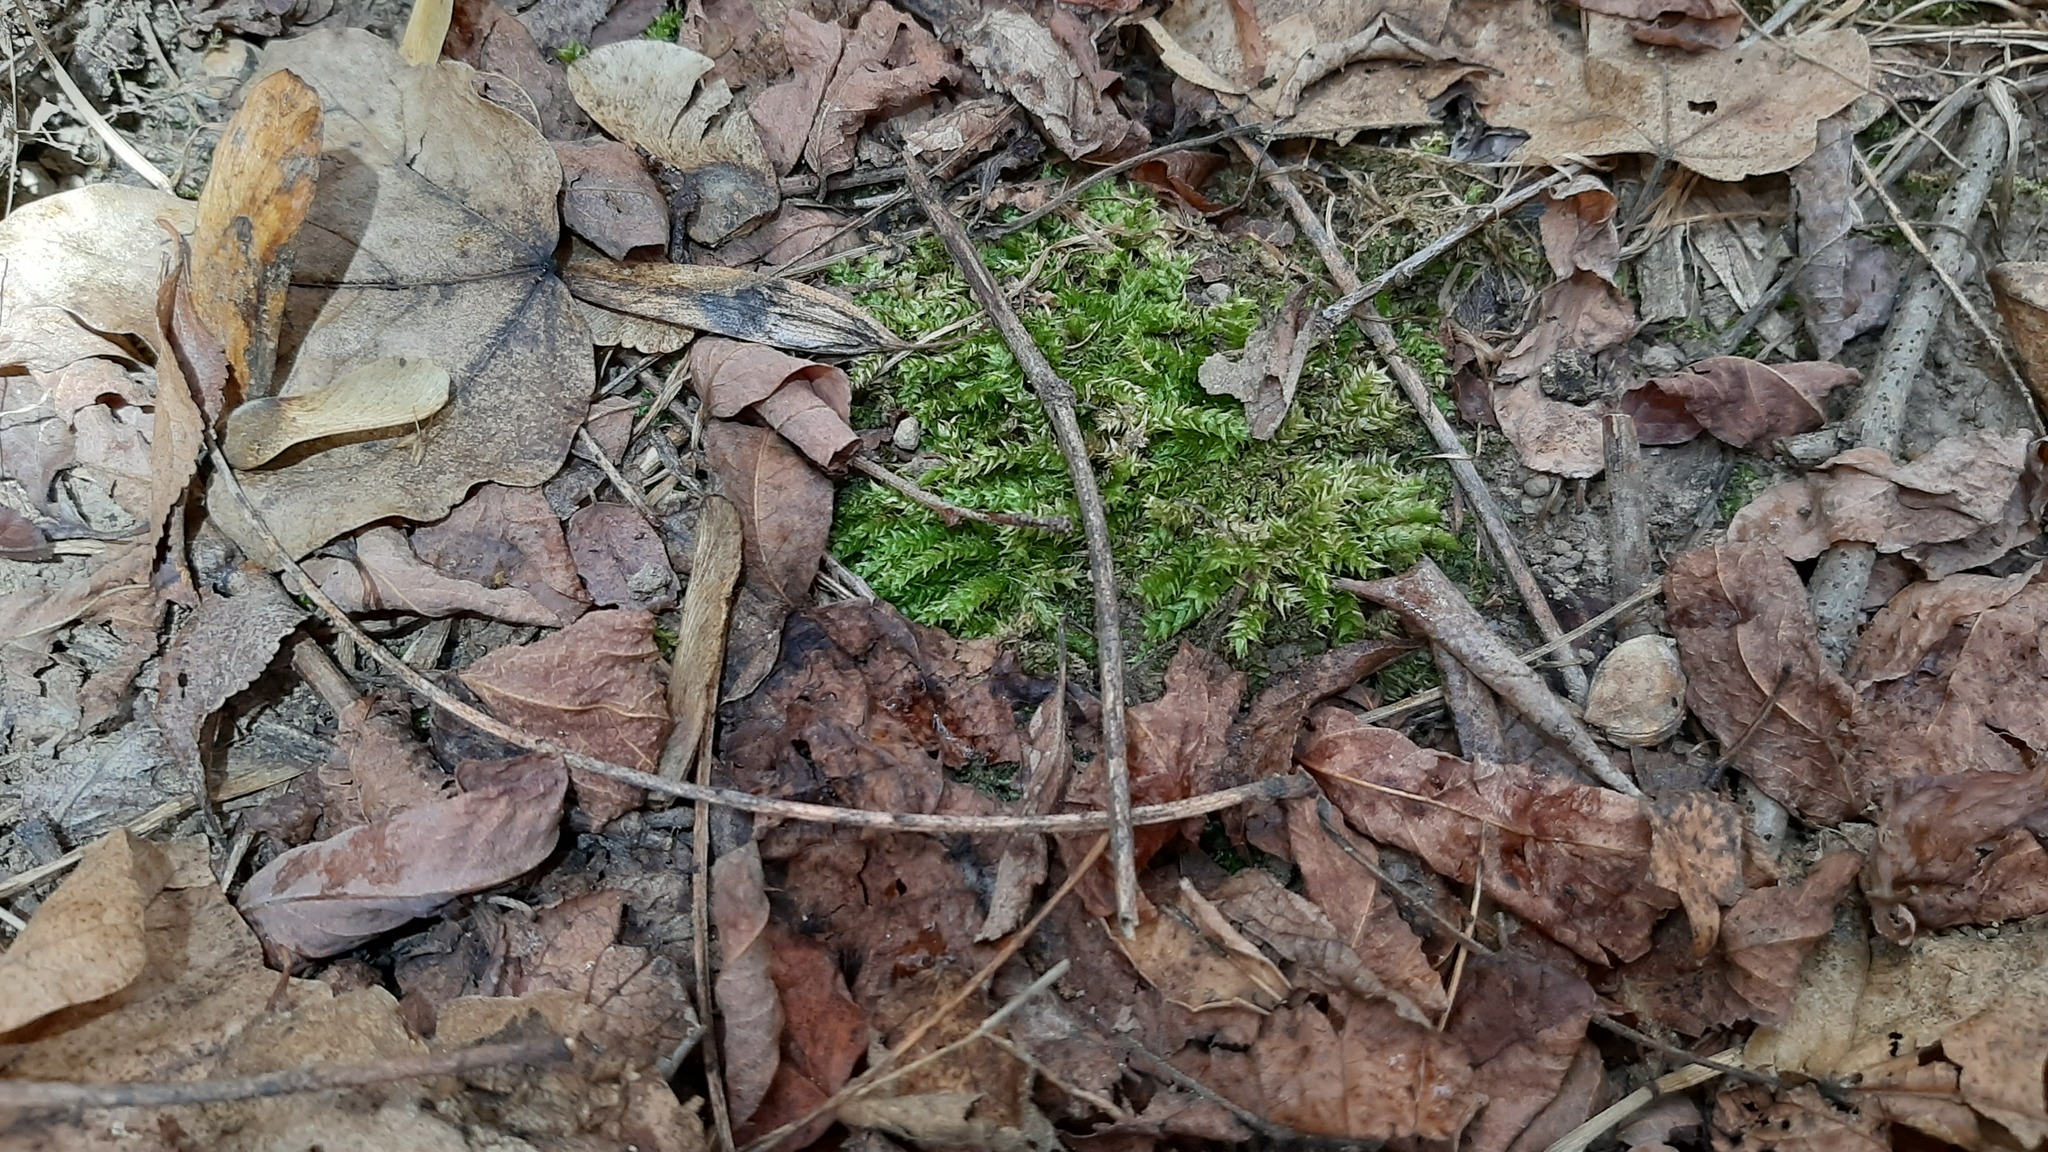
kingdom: Plantae
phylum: Bryophyta
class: Bryopsida
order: Hypnales
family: Brachytheciaceae
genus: Brachythecium
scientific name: Brachythecium rutabulum
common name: Rough-stalked feather-moss
